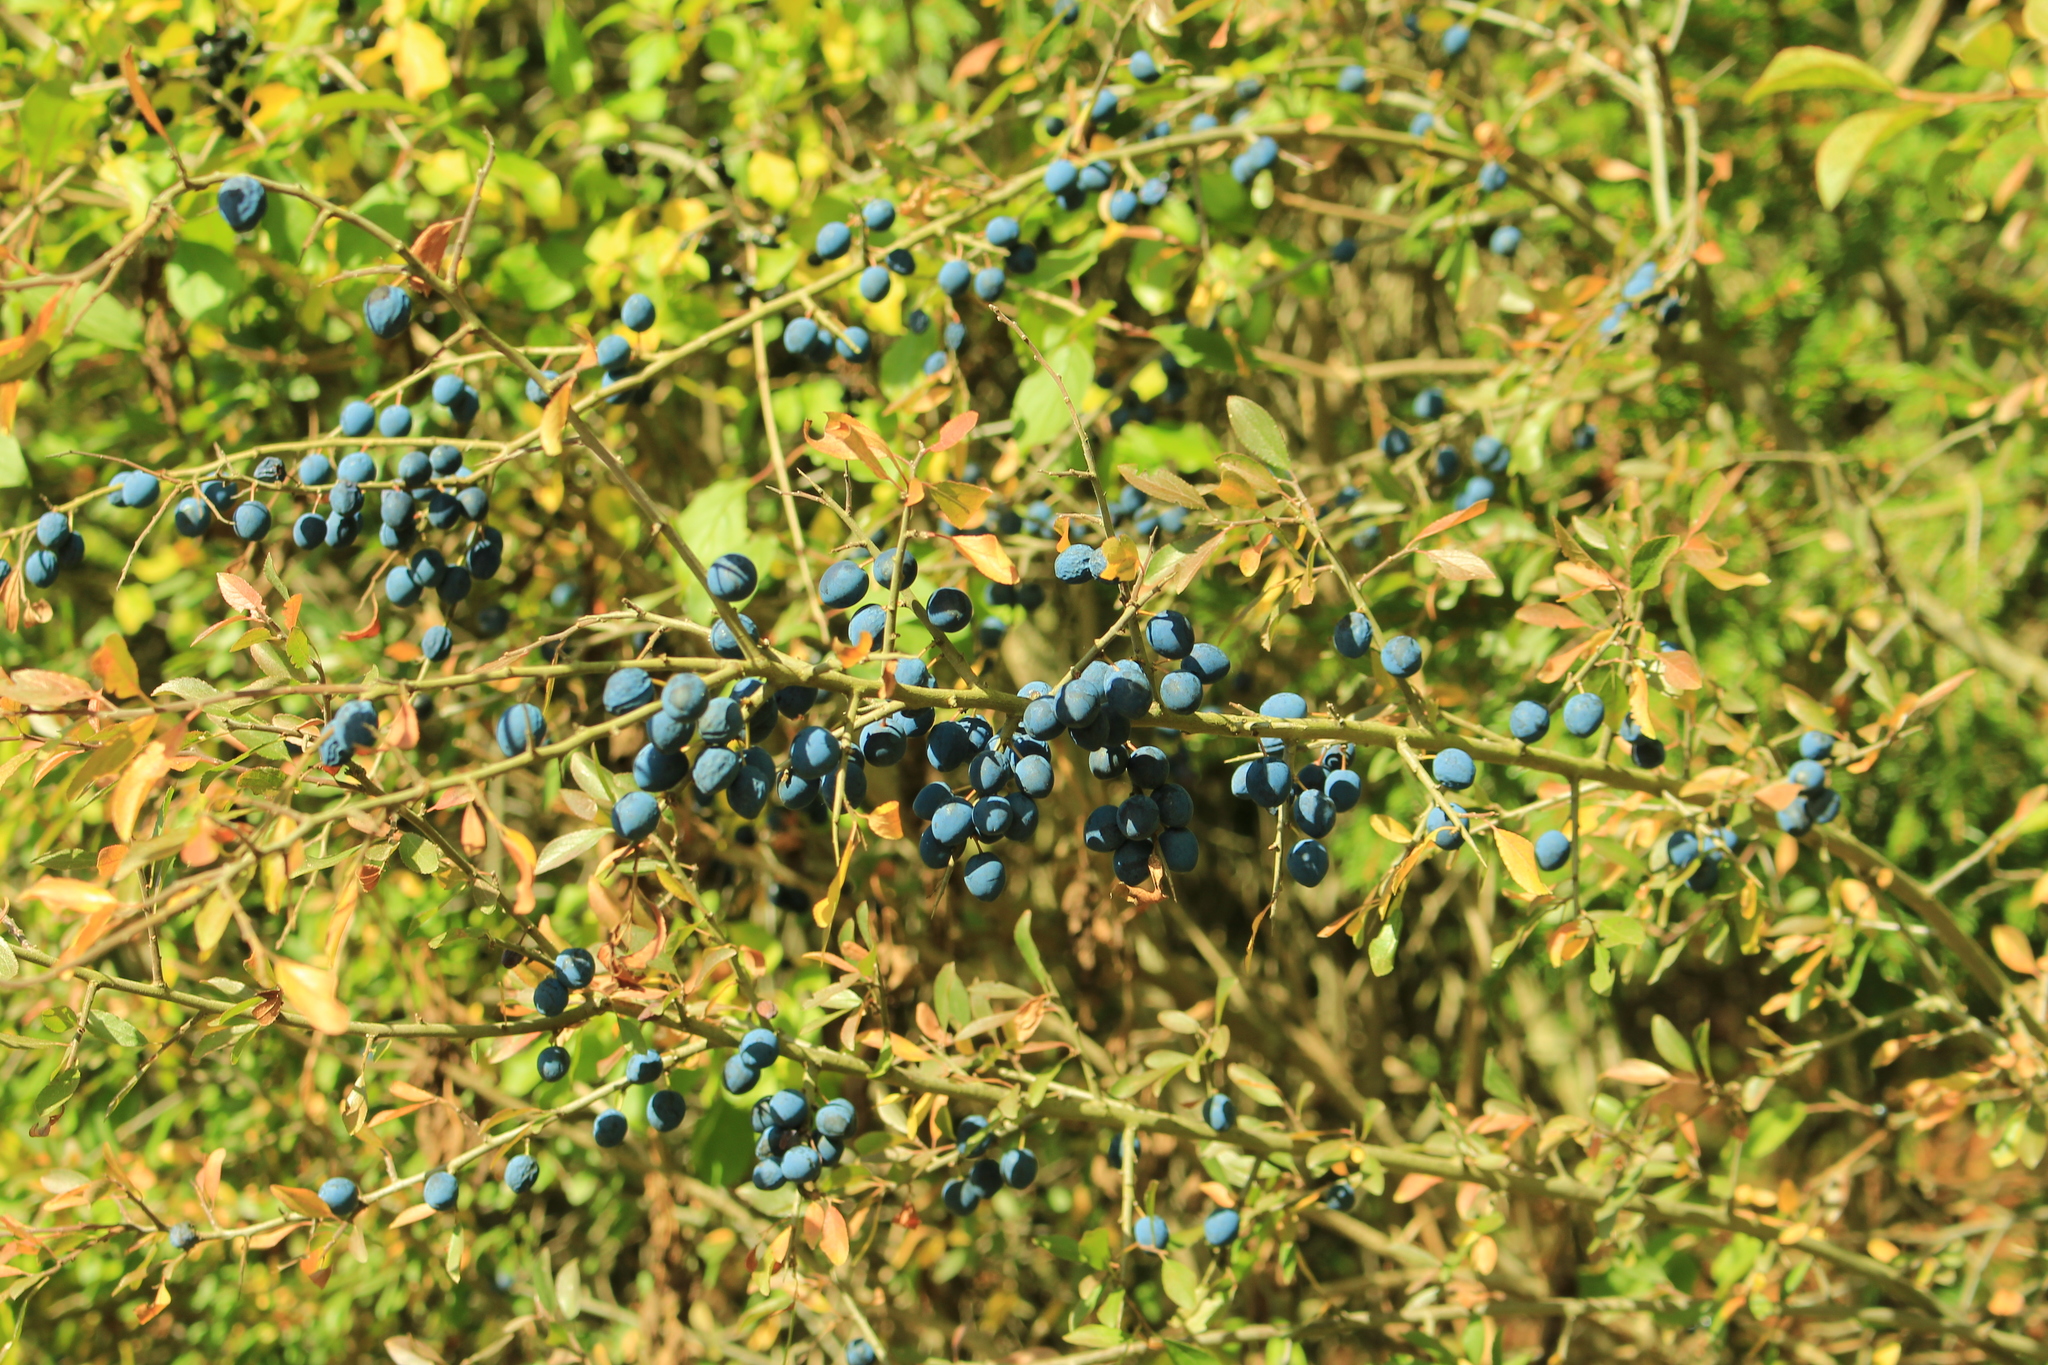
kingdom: Plantae
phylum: Tracheophyta
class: Magnoliopsida
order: Rosales
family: Rosaceae
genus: Prunus
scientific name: Prunus spinosa
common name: Blackthorn
